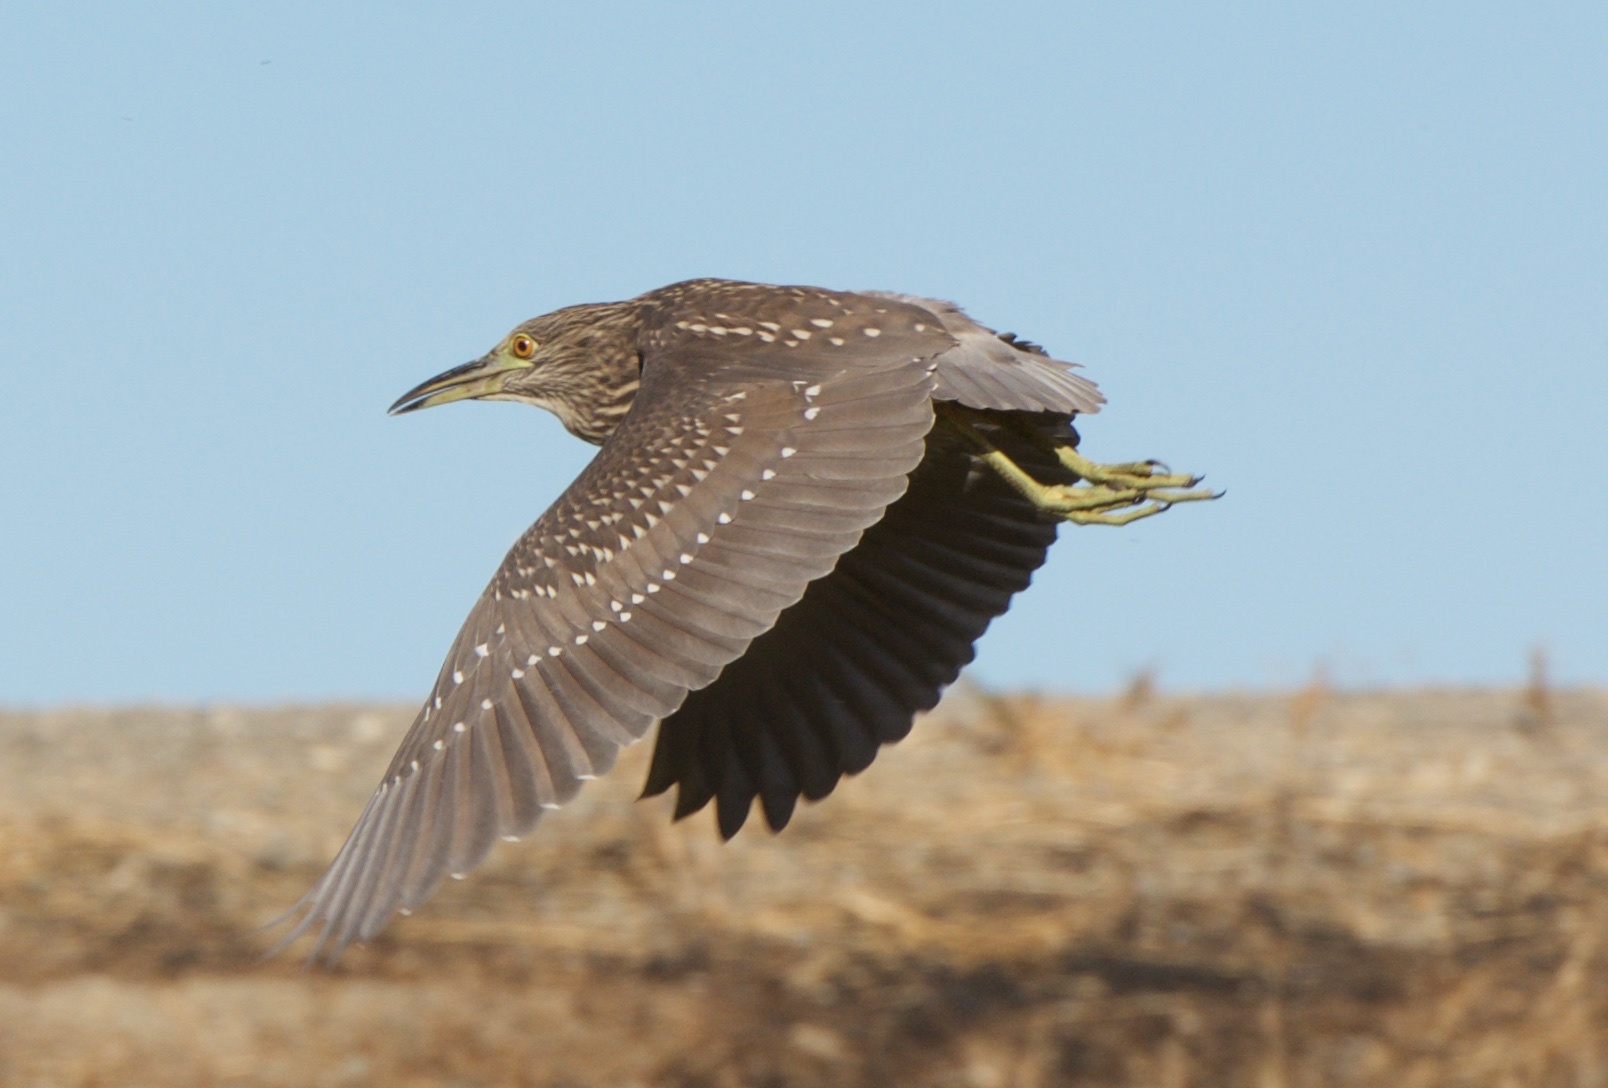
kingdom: Animalia
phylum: Chordata
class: Aves
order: Pelecaniformes
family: Ardeidae
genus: Nycticorax
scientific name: Nycticorax nycticorax
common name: Black-crowned night heron
